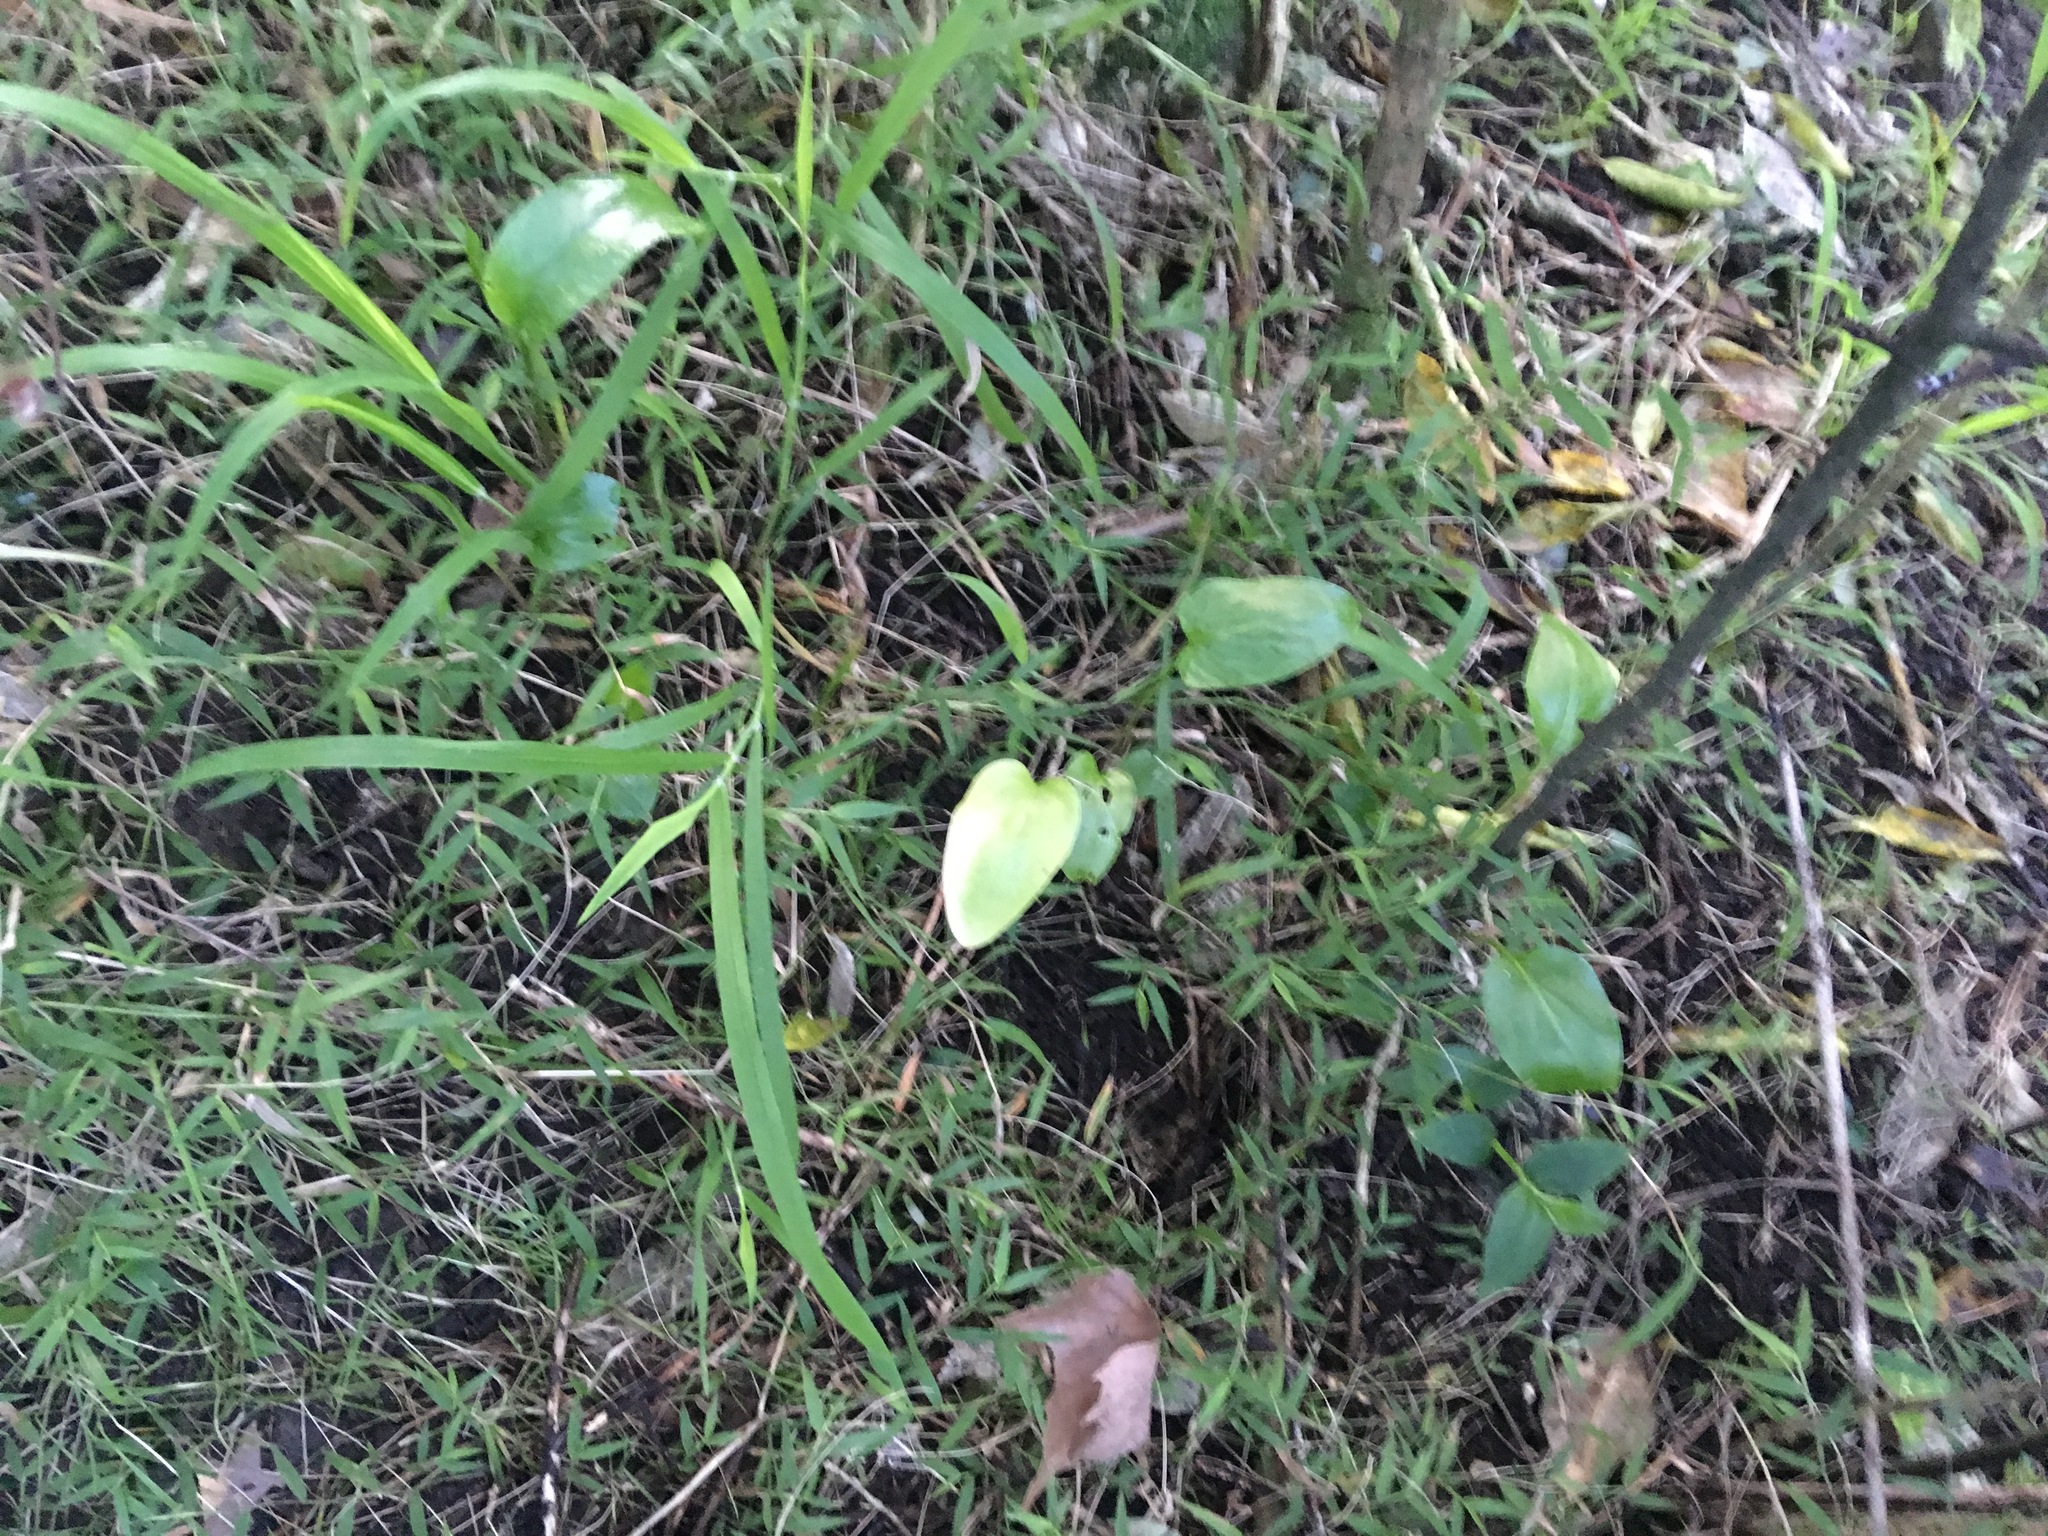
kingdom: Plantae
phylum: Tracheophyta
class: Liliopsida
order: Alismatales
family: Araceae
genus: Zantedeschia
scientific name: Zantedeschia aethiopica
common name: Altar-lily
